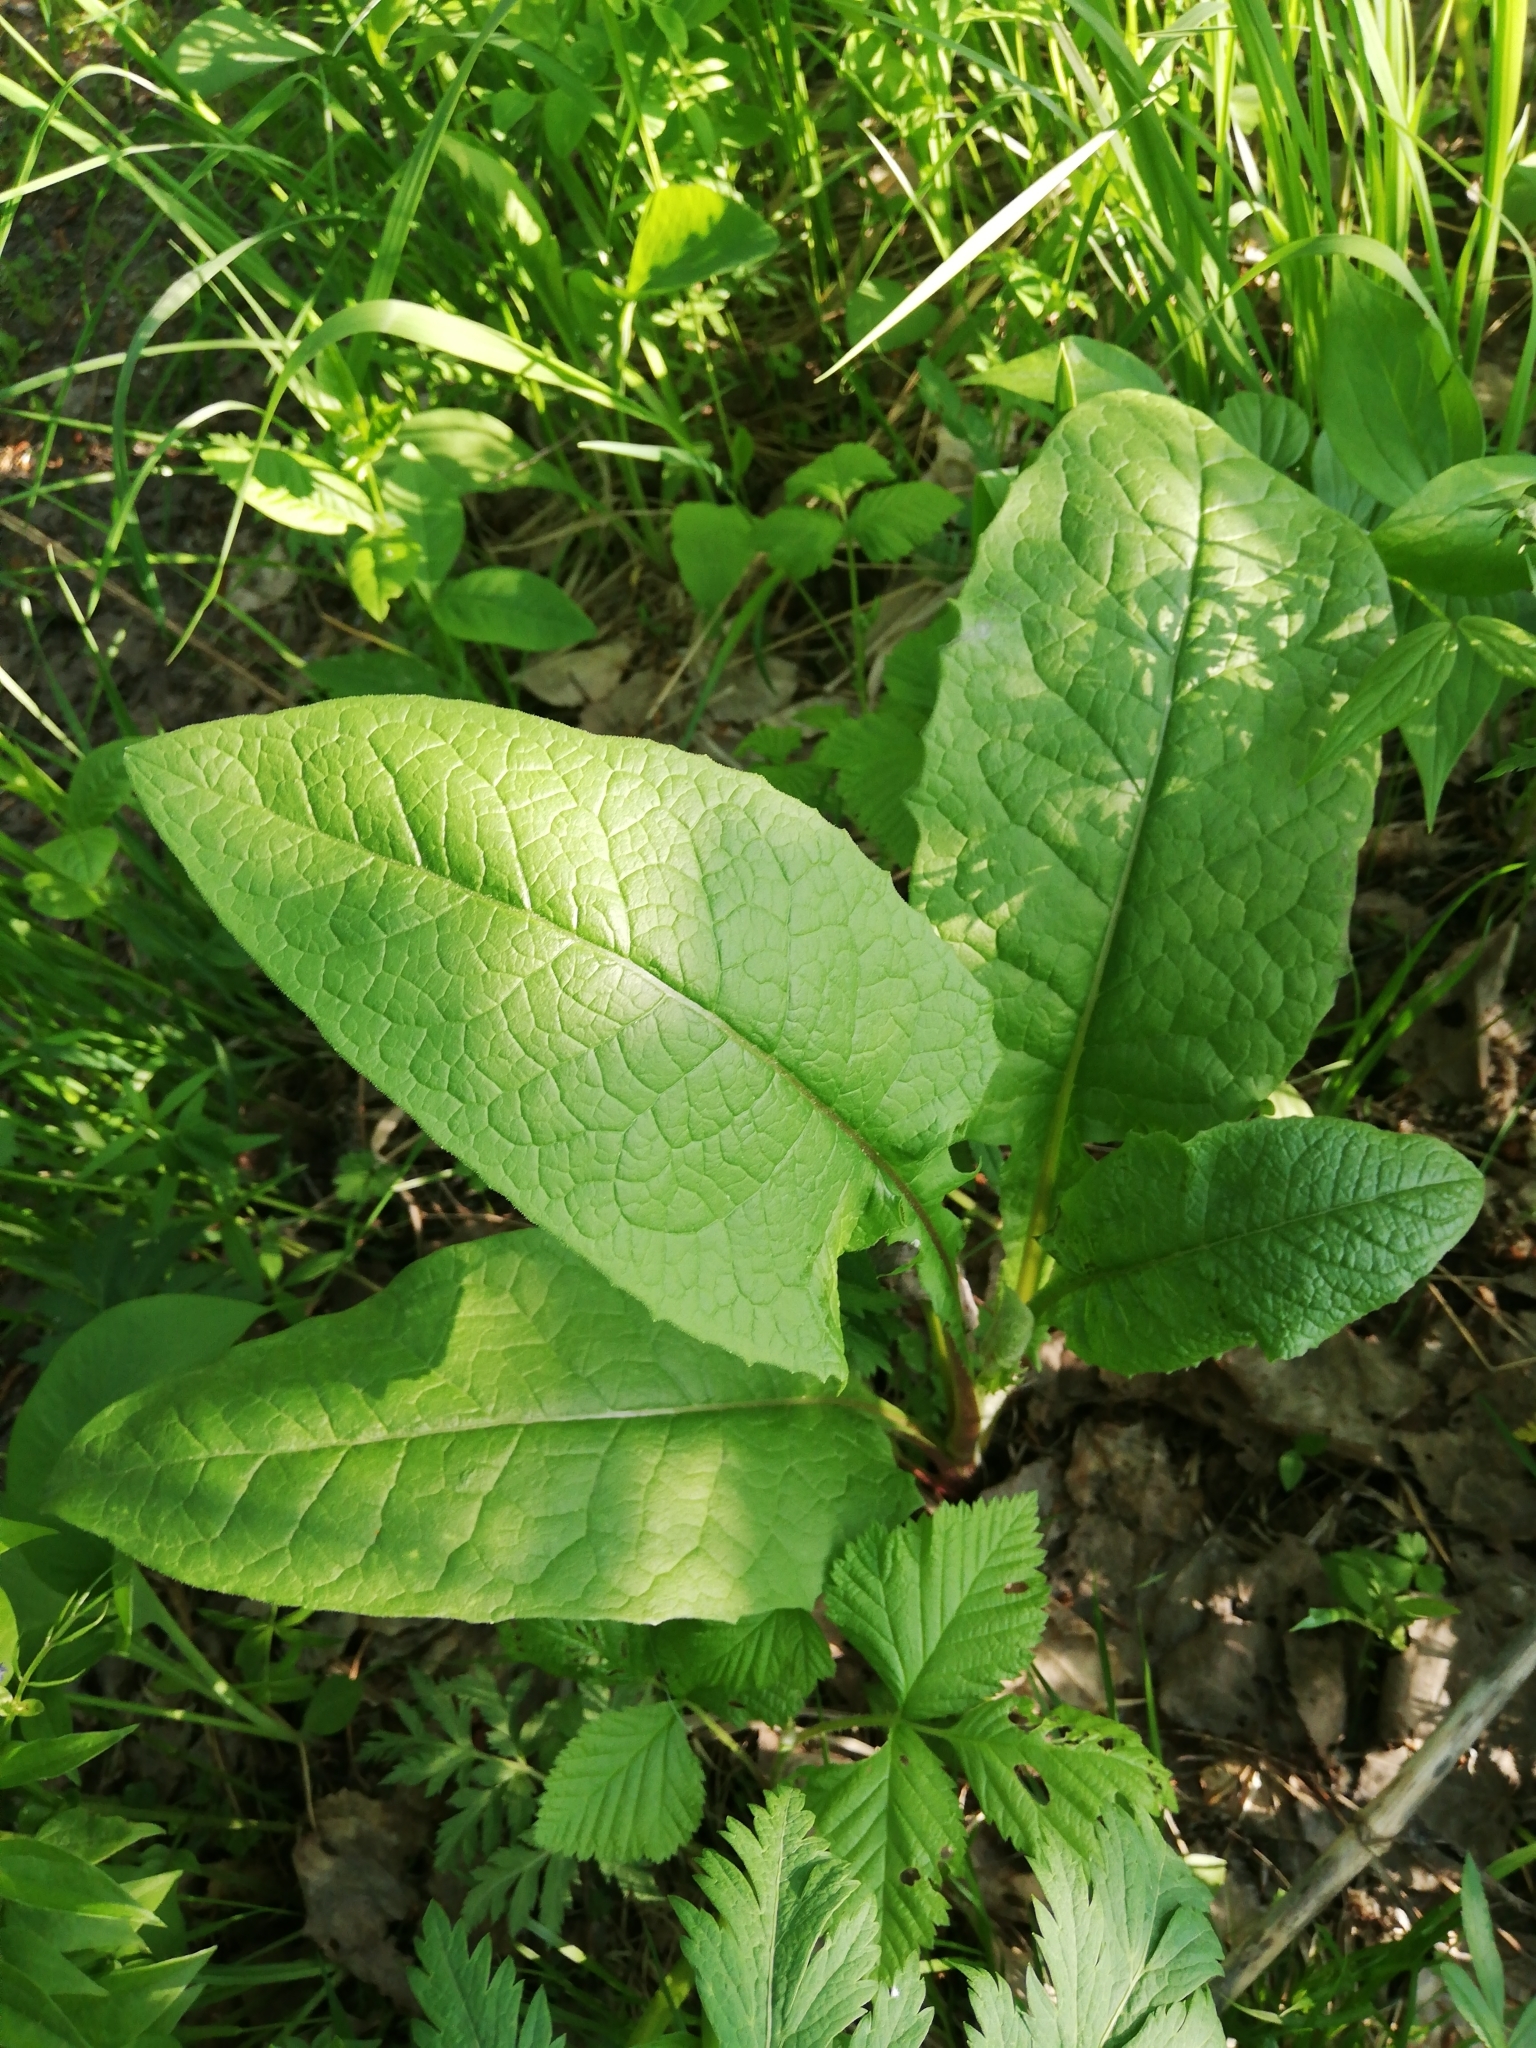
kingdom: Plantae
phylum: Tracheophyta
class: Magnoliopsida
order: Asterales
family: Asteraceae
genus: Crepis
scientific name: Crepis sibirica
